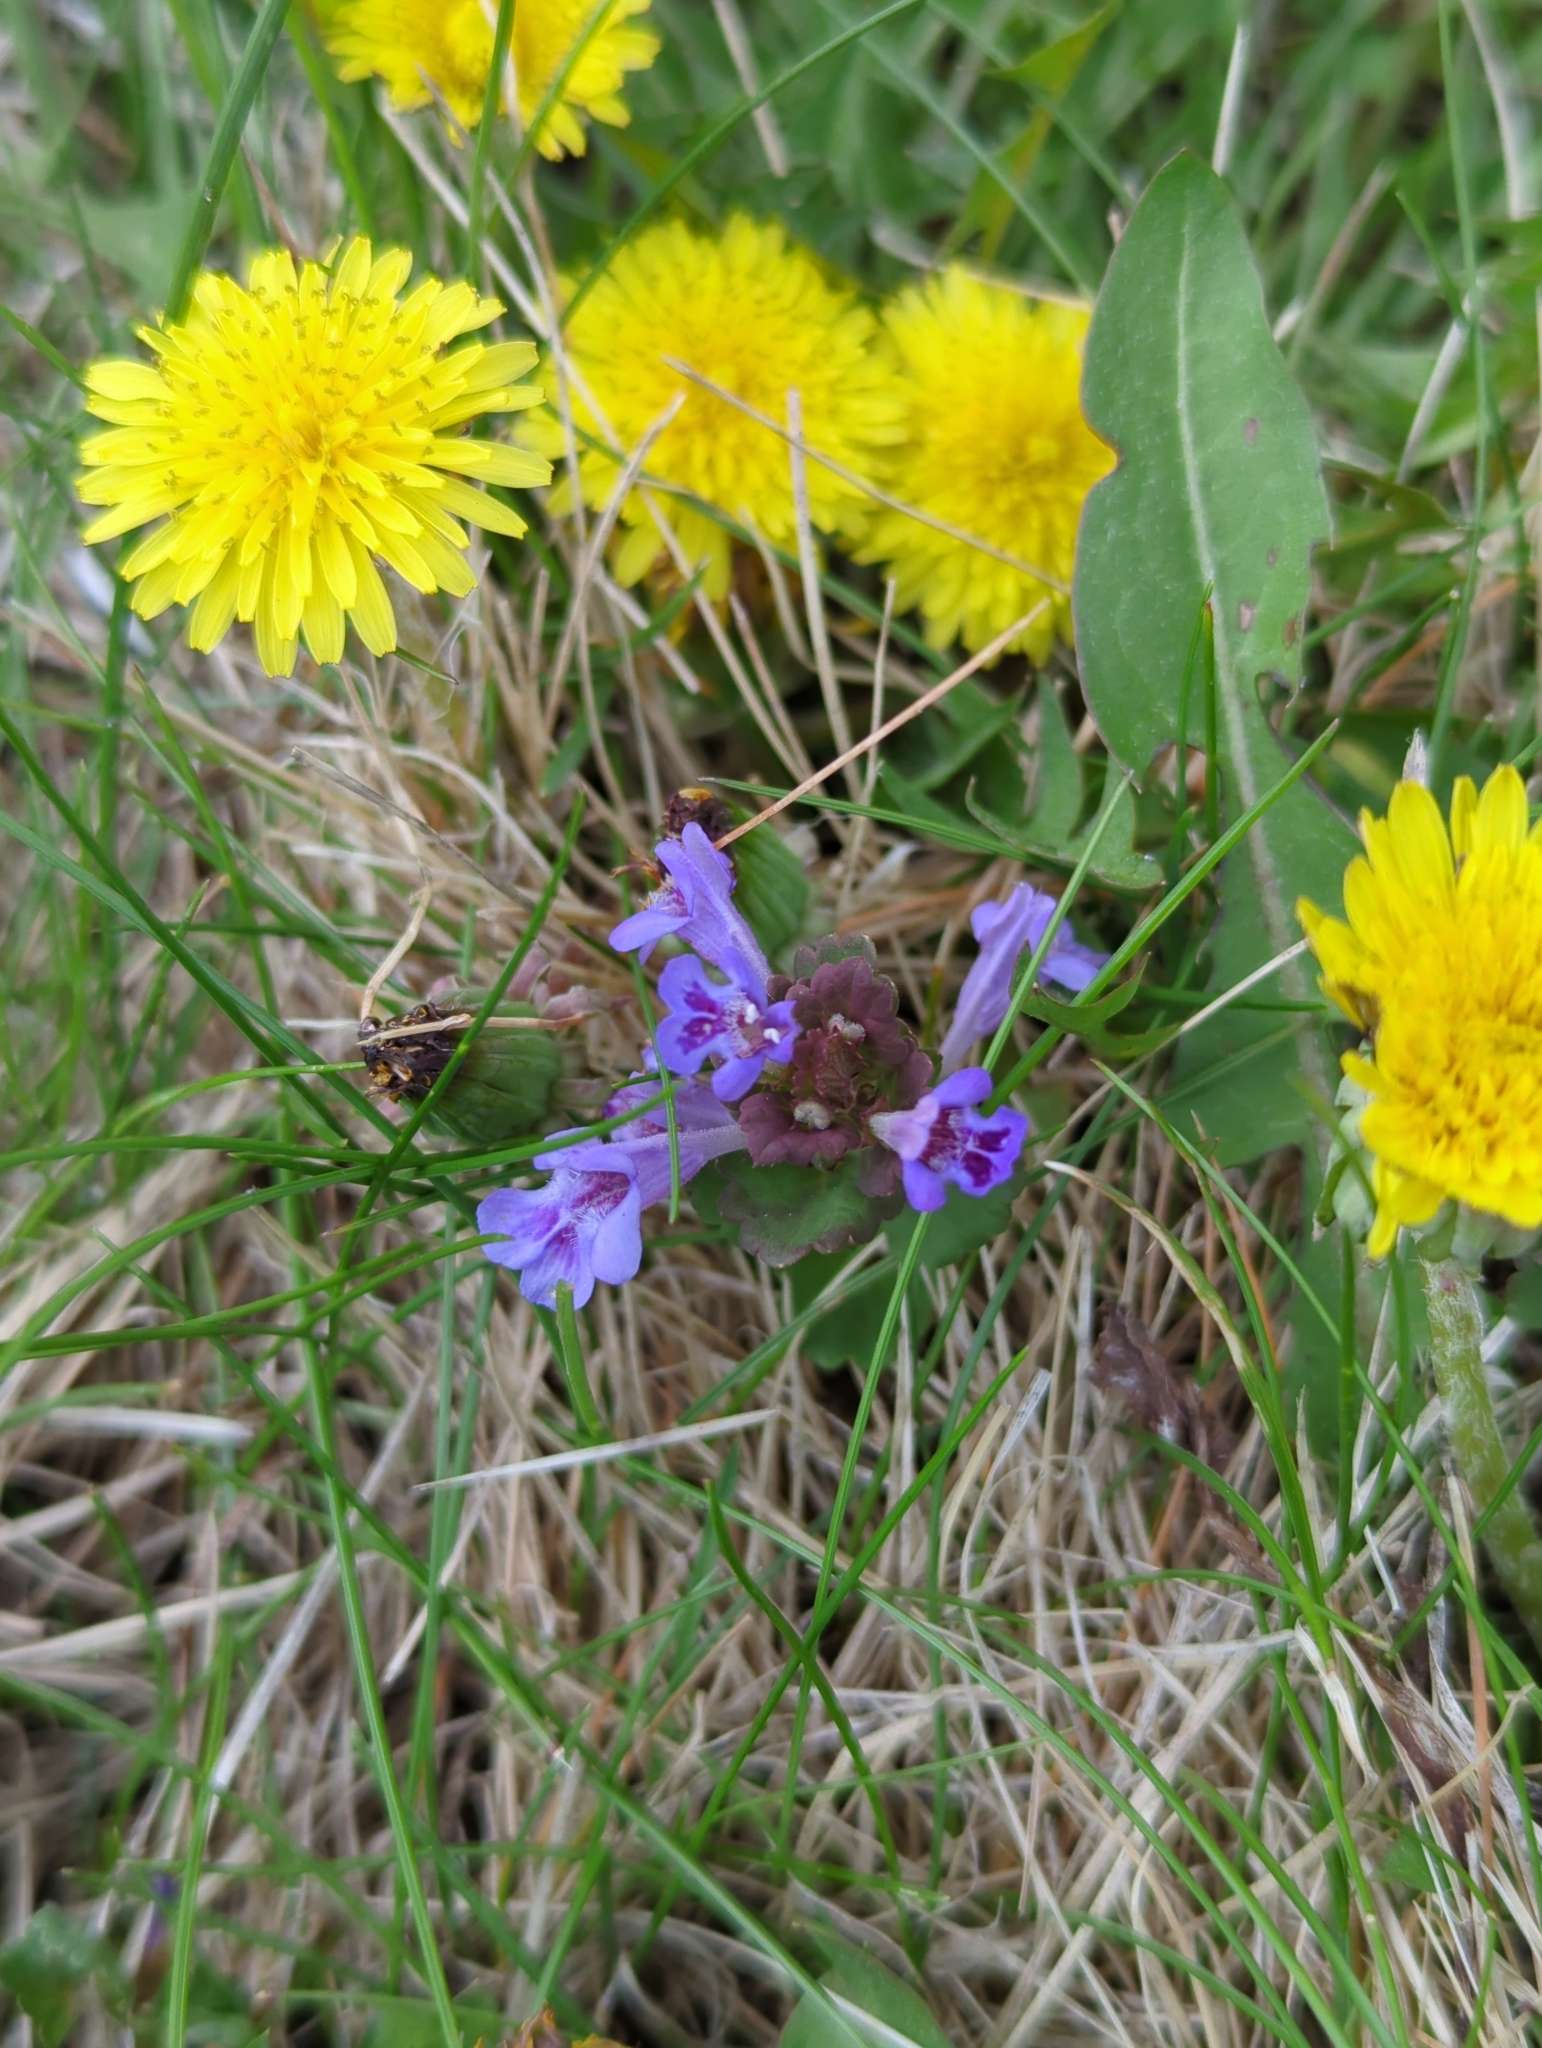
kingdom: Plantae
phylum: Tracheophyta
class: Magnoliopsida
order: Lamiales
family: Lamiaceae
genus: Glechoma
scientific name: Glechoma hederacea
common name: Ground ivy
